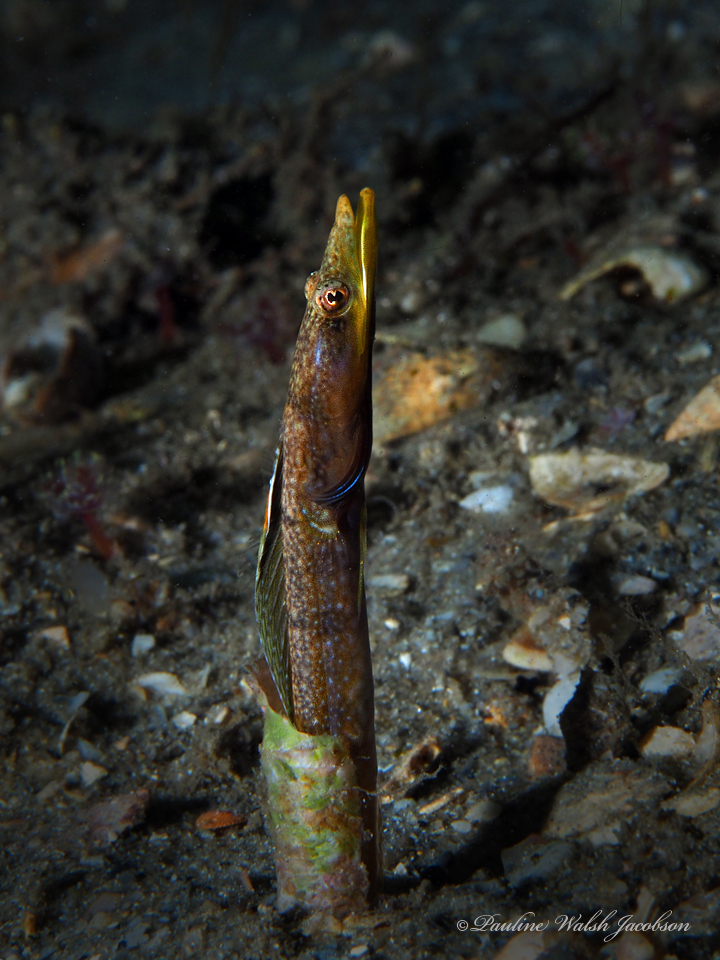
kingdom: Animalia
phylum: Chordata
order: Perciformes
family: Chaenopsidae
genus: Chaenopsis
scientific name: Chaenopsis ocellata
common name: Bluethroat pikeblenny
